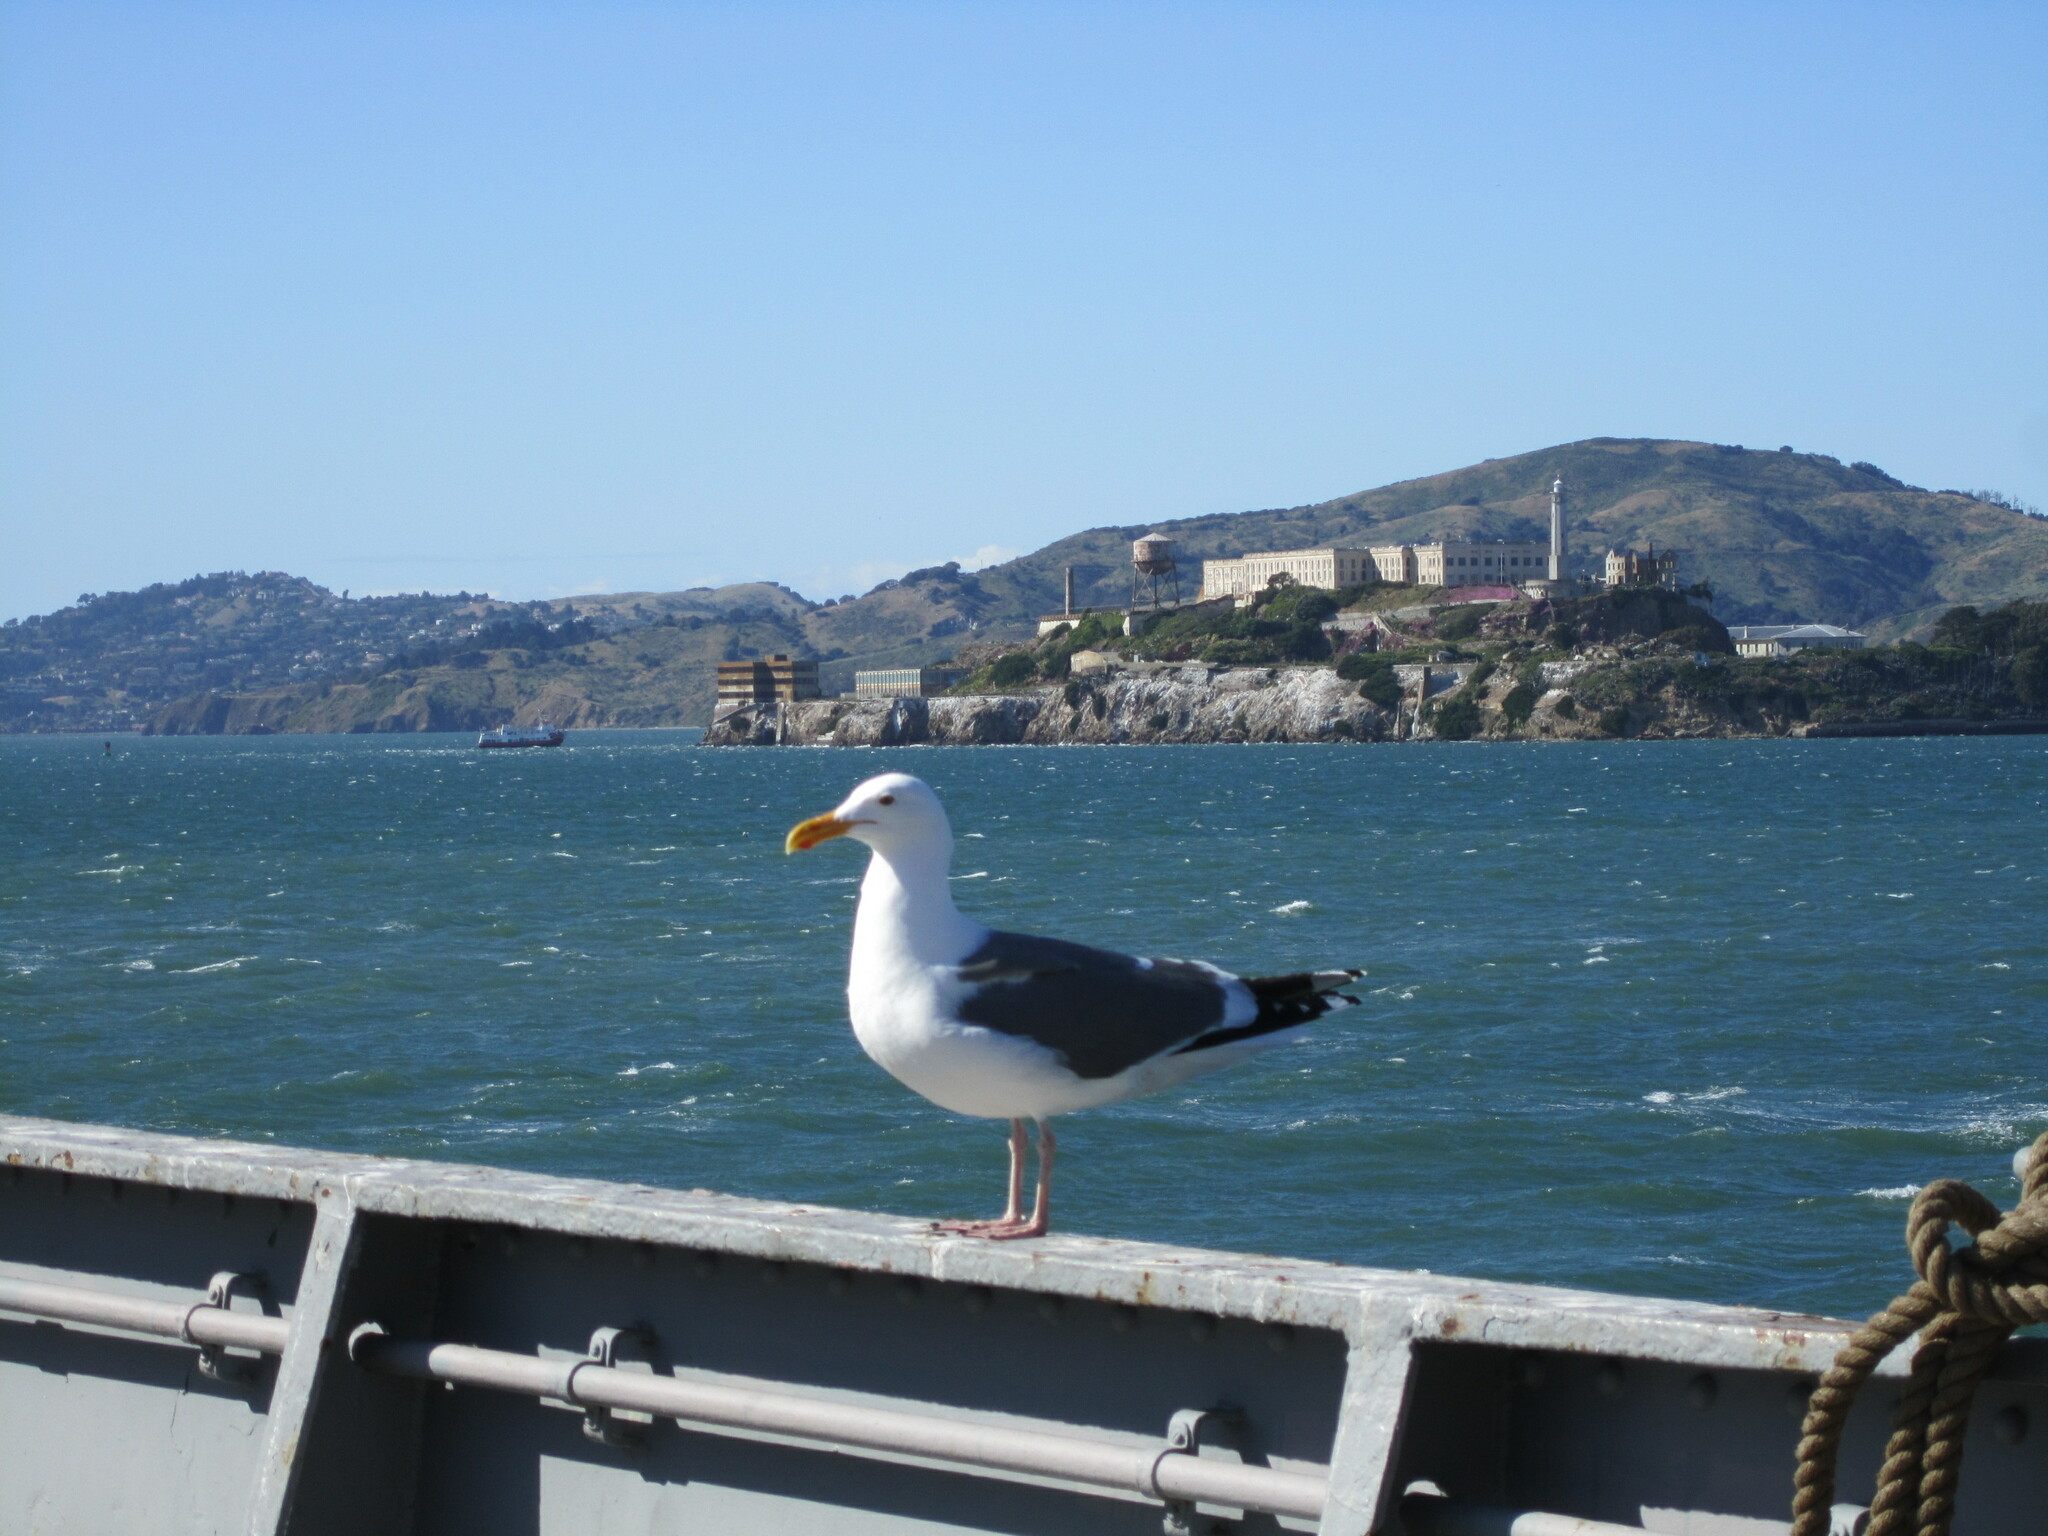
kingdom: Animalia
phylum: Chordata
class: Aves
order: Charadriiformes
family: Laridae
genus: Larus
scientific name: Larus occidentalis
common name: Western gull
